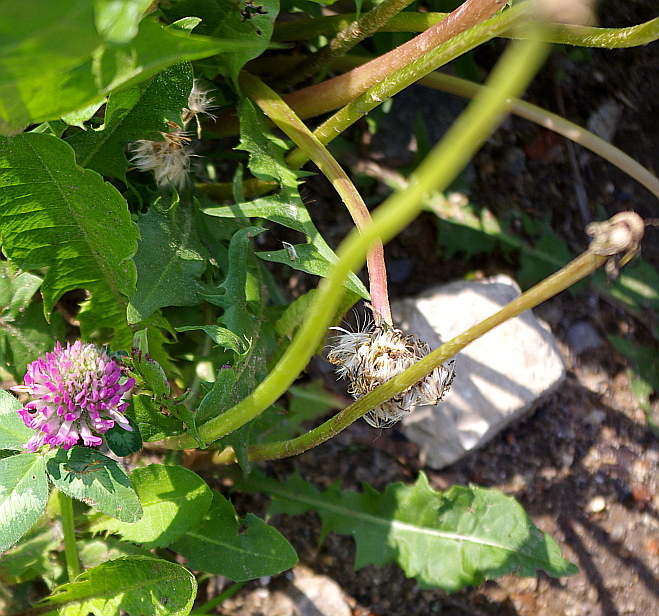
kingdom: Plantae
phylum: Tracheophyta
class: Magnoliopsida
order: Asterales
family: Asteraceae
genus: Taraxacum
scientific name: Taraxacum officinale
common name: Common dandelion
